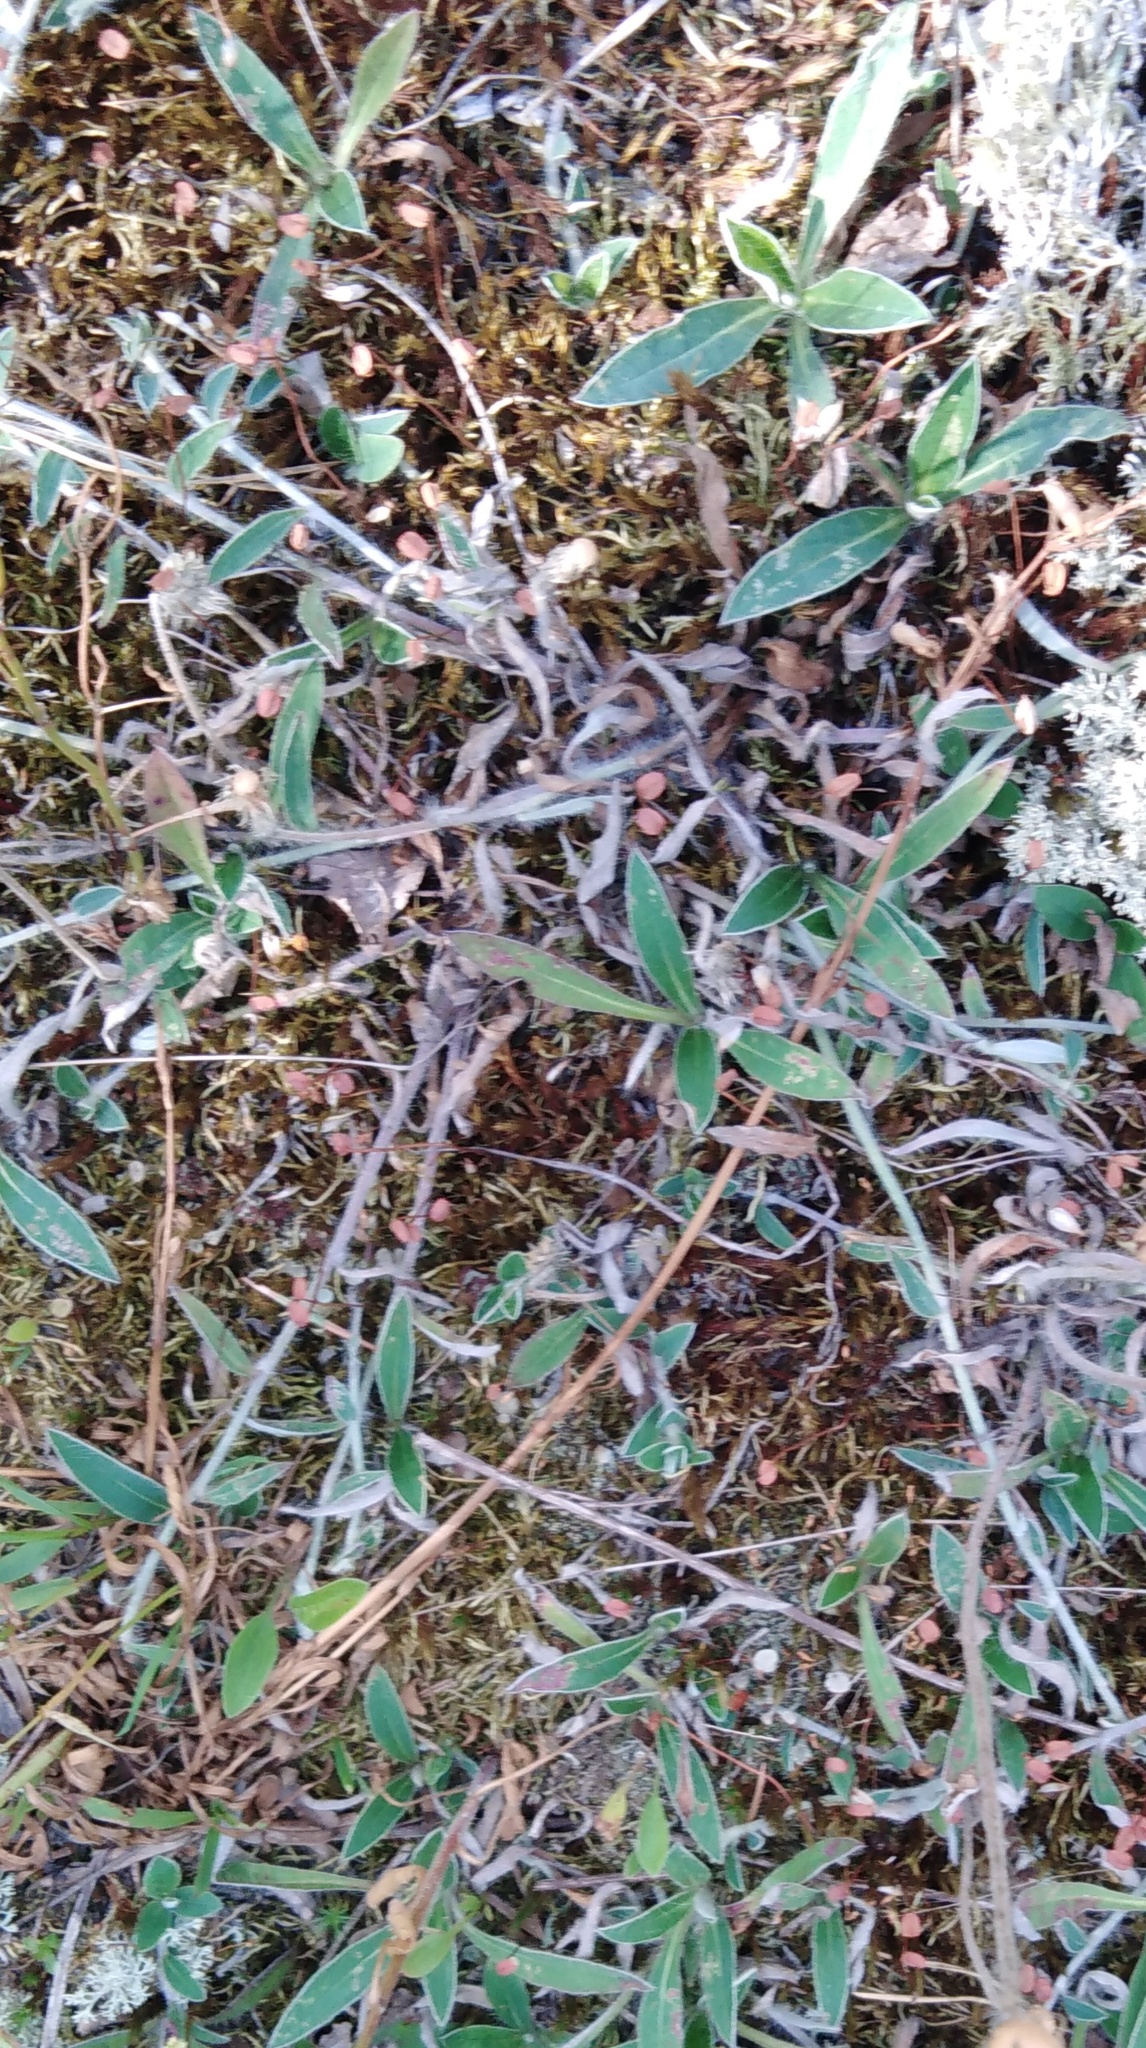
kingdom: Plantae
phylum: Tracheophyta
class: Magnoliopsida
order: Asterales
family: Asteraceae
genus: Pilosella
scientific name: Pilosella officinarum
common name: Mouse-ear hawkweed
